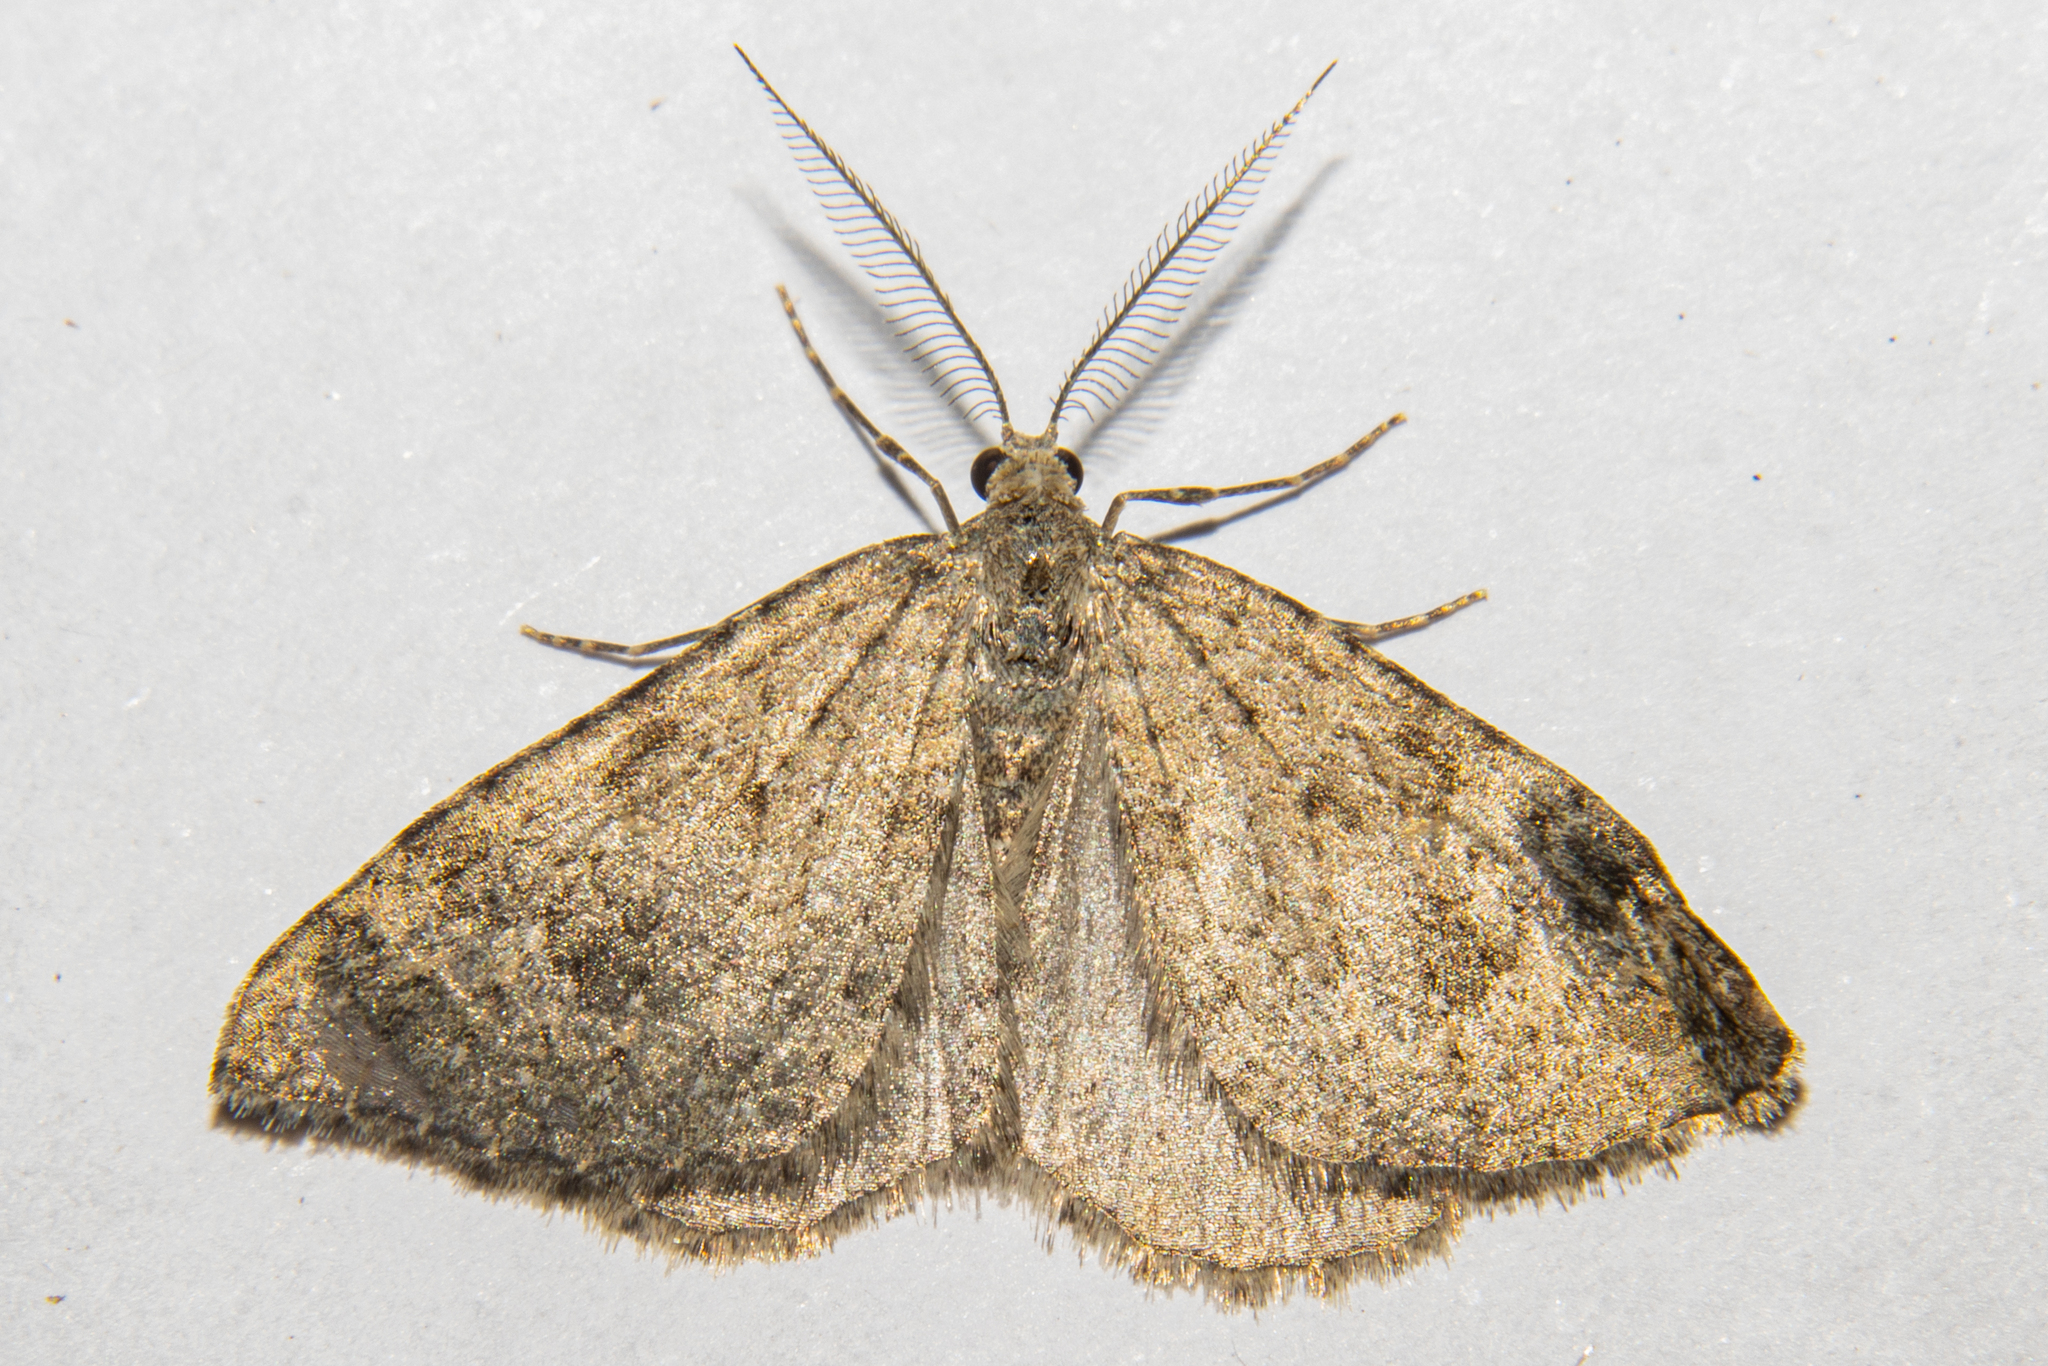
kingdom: Animalia
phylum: Arthropoda
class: Insecta
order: Lepidoptera
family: Geometridae
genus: Helastia
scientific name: Helastia corcularia
